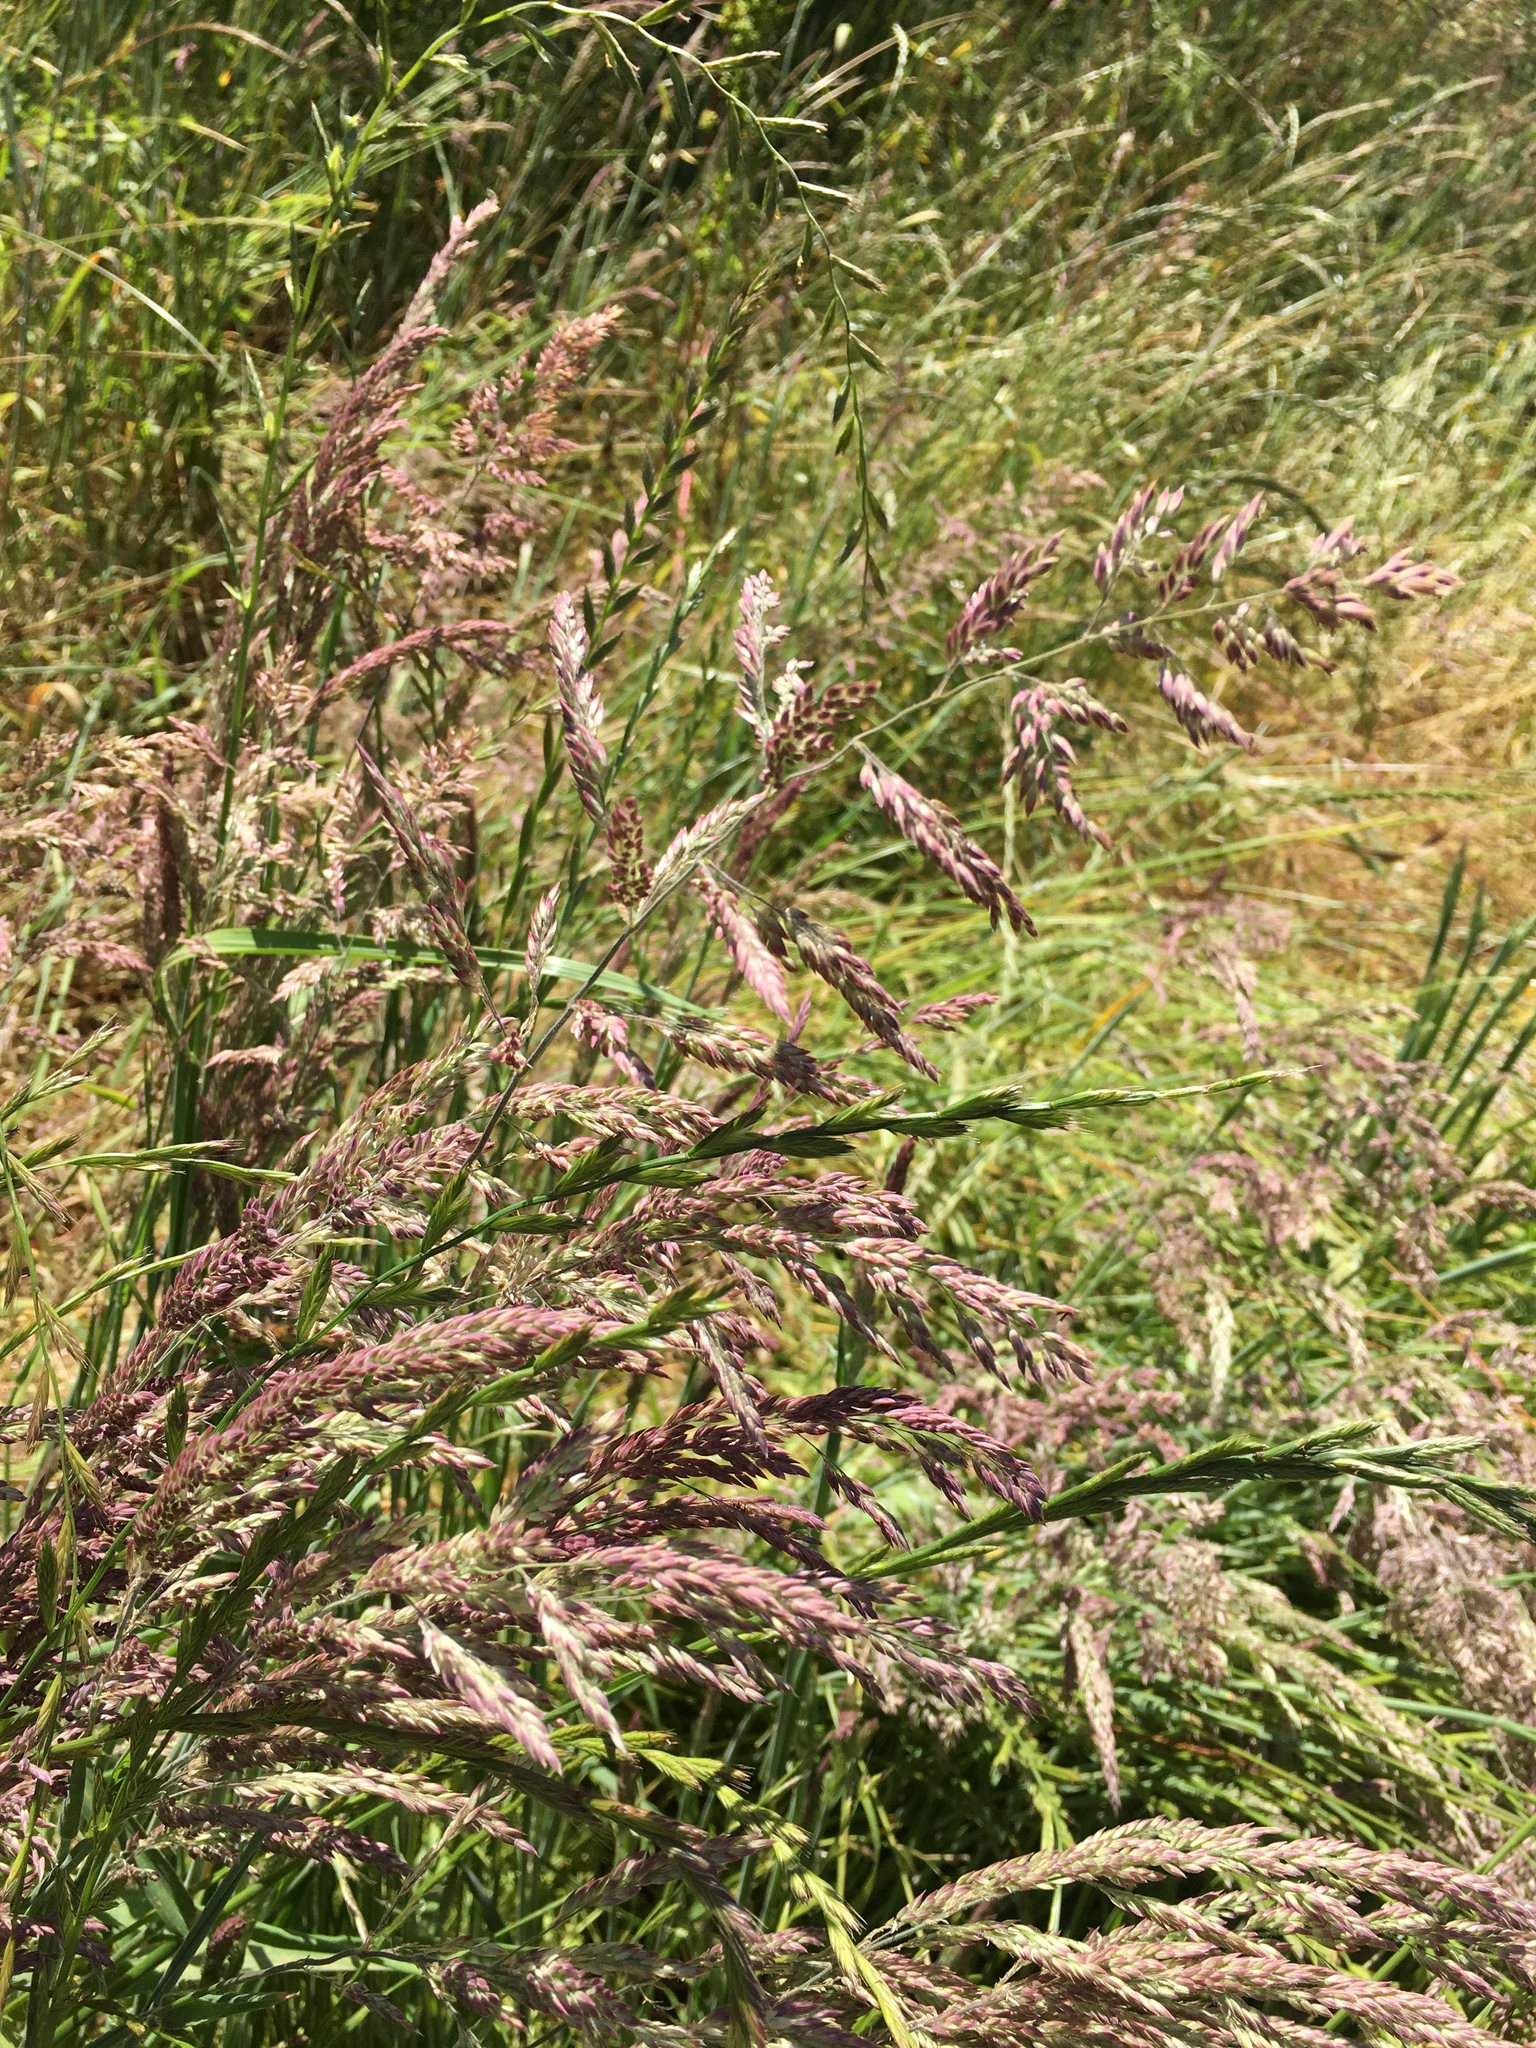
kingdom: Plantae
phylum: Tracheophyta
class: Liliopsida
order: Poales
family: Poaceae
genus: Holcus
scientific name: Holcus lanatus
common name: Yorkshire-fog
